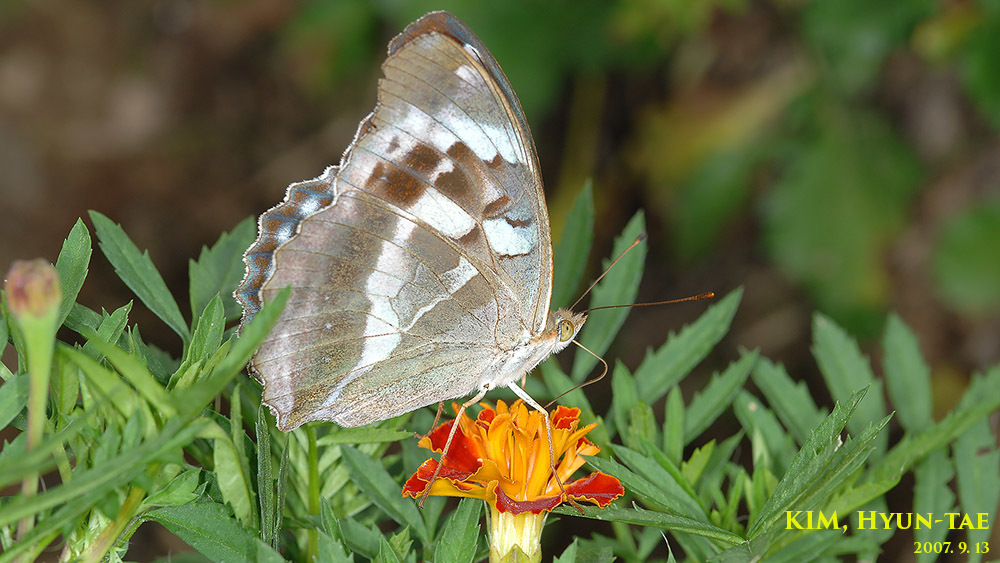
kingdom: Animalia
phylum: Arthropoda
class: Insecta
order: Lepidoptera
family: Nymphalidae
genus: Damora
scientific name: Damora sagana
